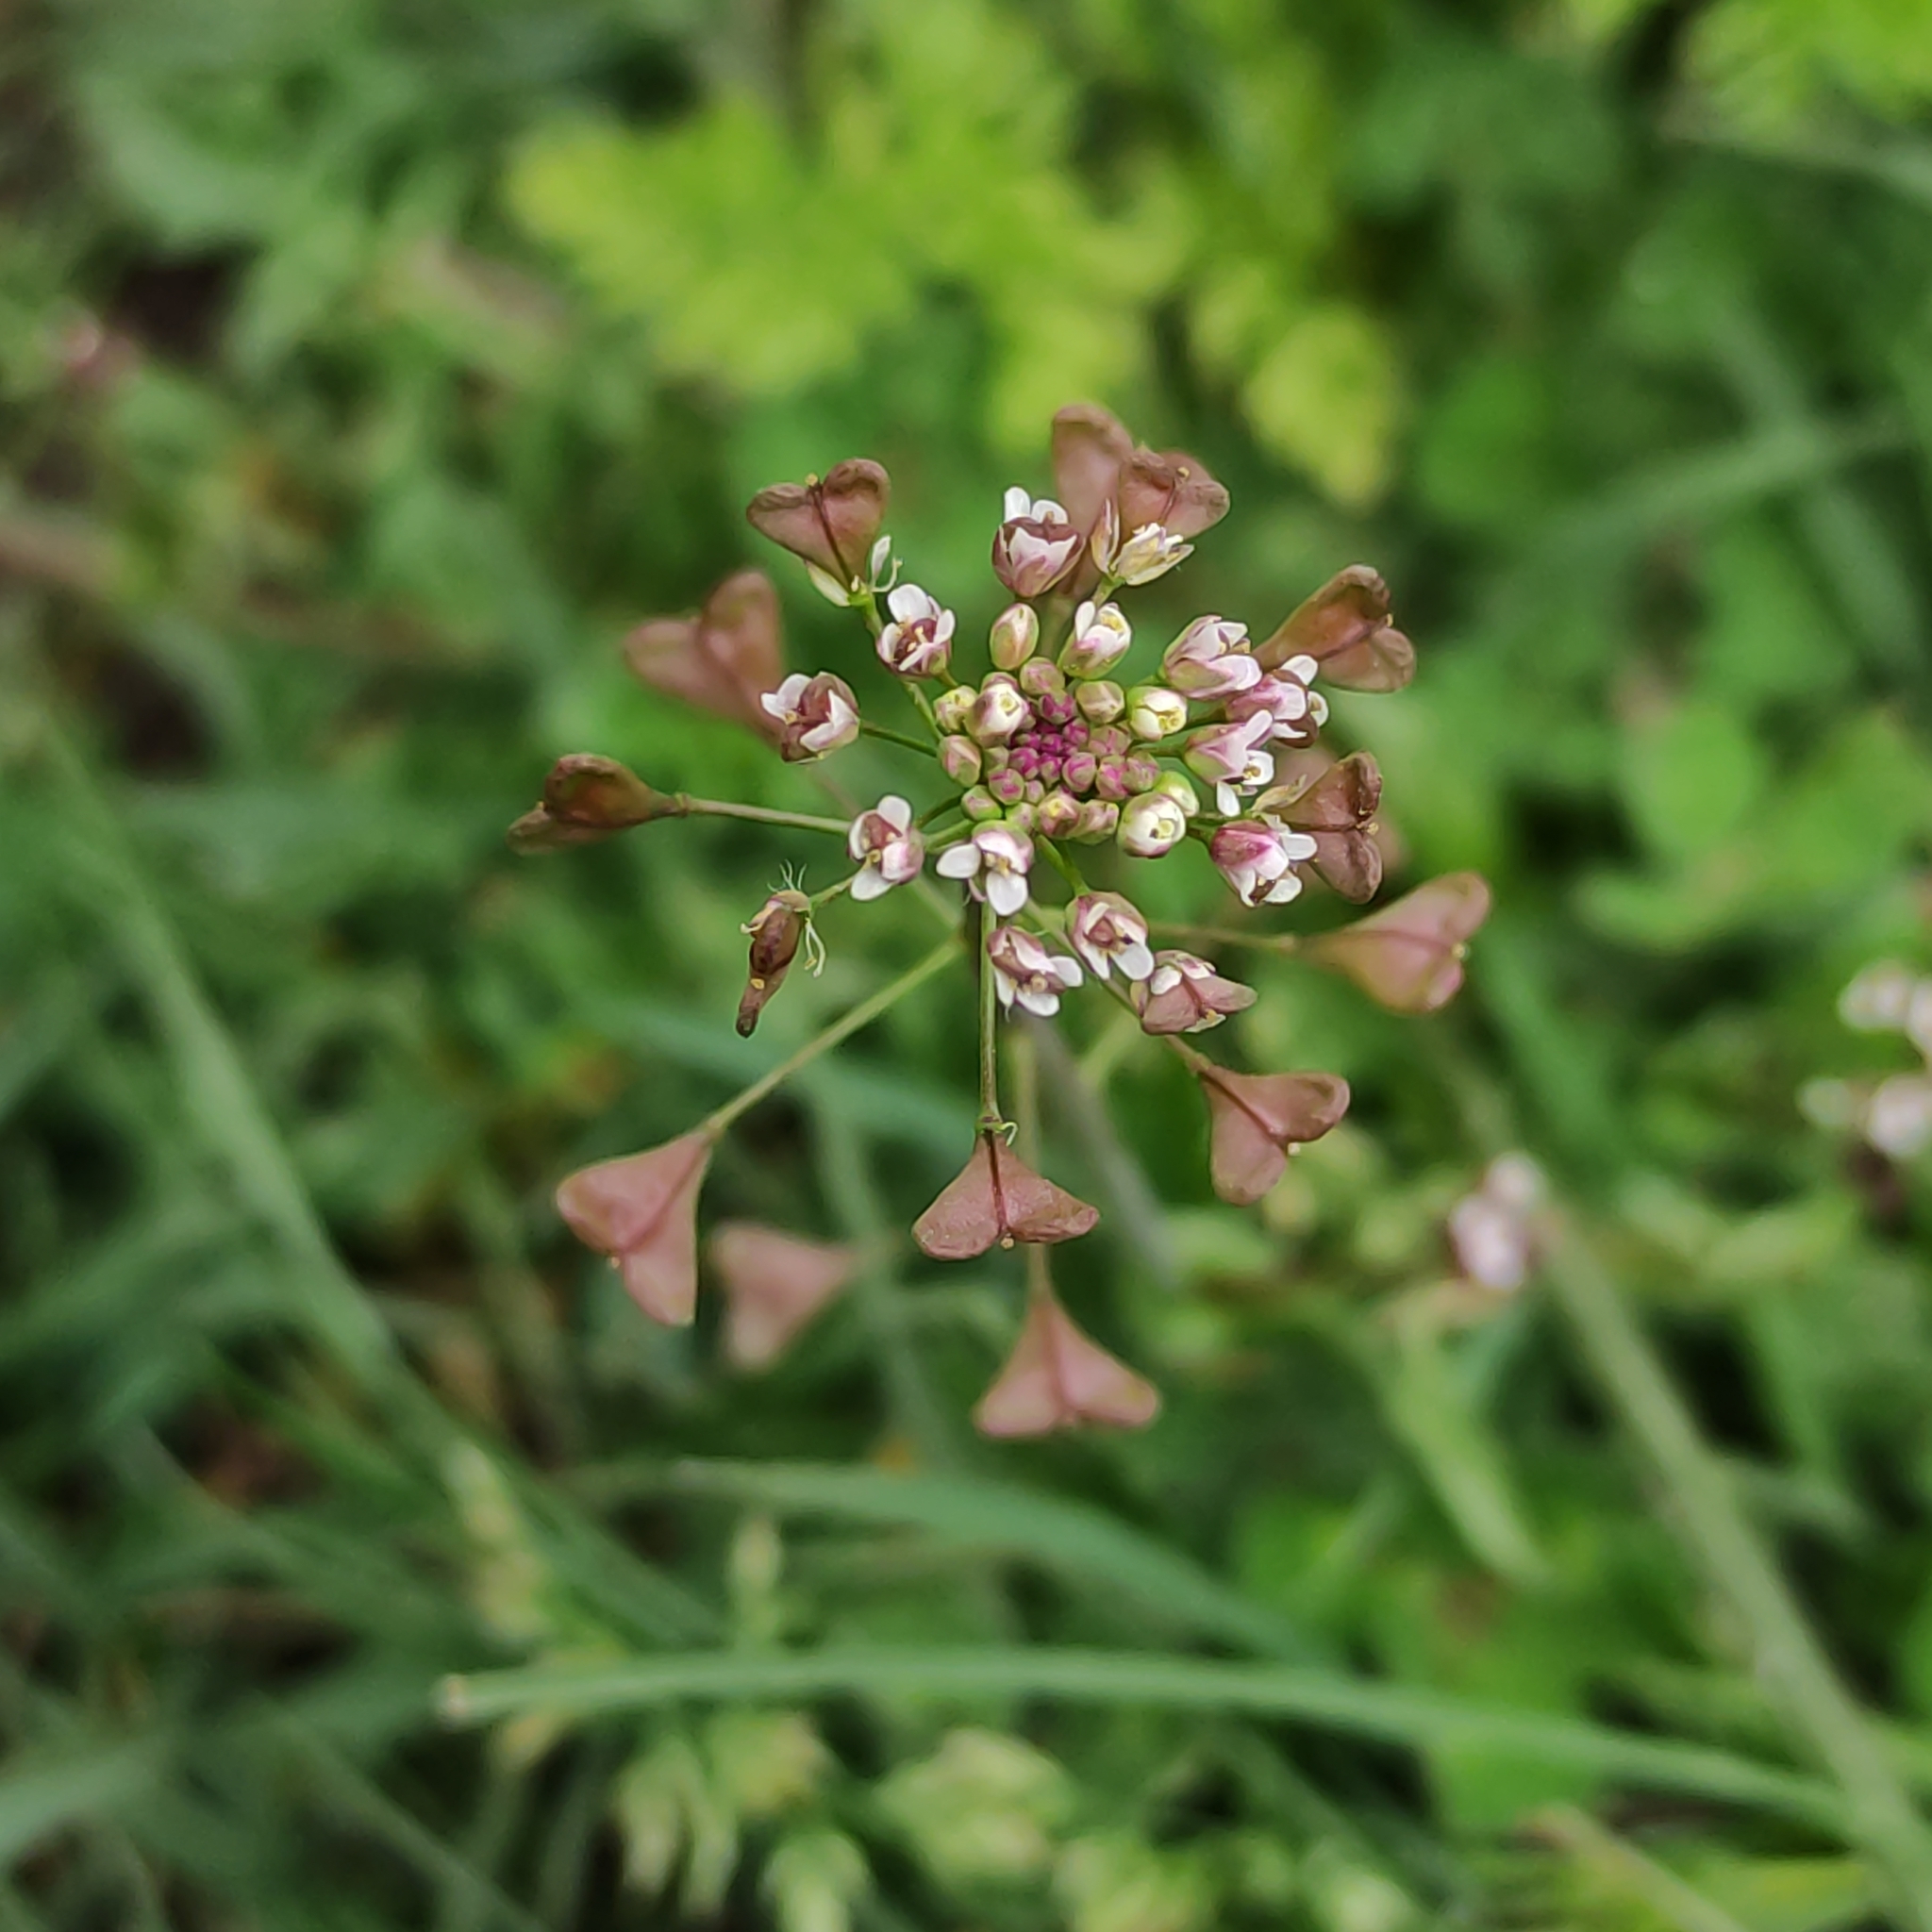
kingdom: Plantae
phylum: Tracheophyta
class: Magnoliopsida
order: Brassicales
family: Brassicaceae
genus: Capsella
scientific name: Capsella bursa-pastoris
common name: Shepherd's purse
